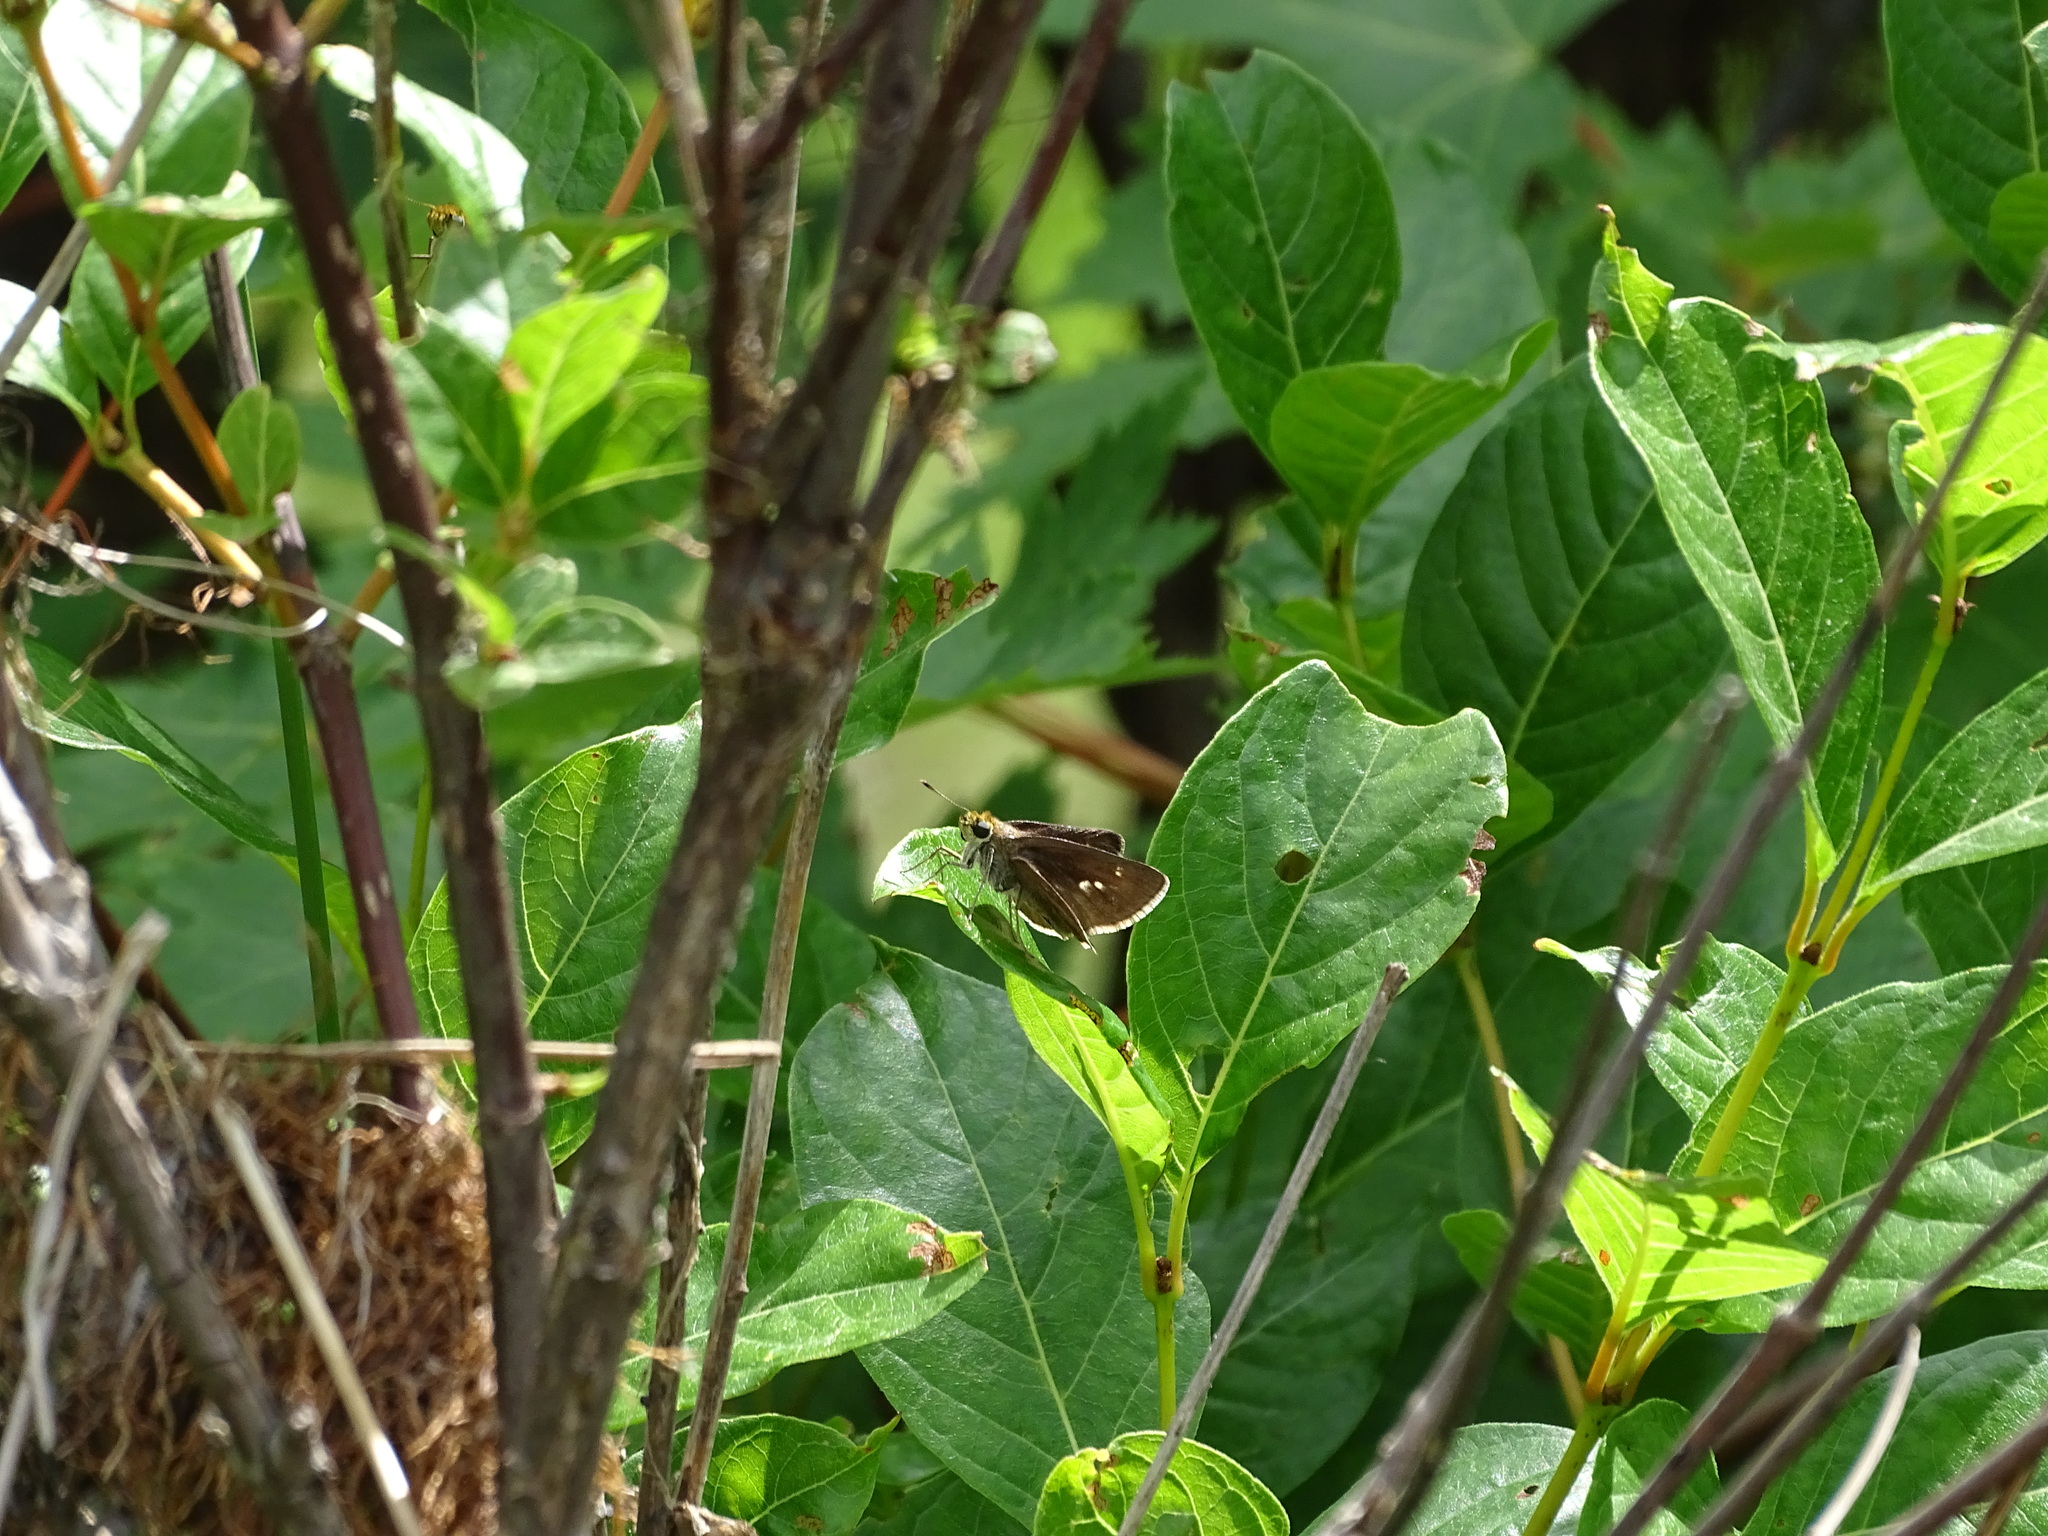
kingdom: Animalia
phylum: Arthropoda
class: Insecta
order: Lepidoptera
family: Hesperiidae
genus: Euphyes
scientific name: Euphyes vestris
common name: Dun skipper
